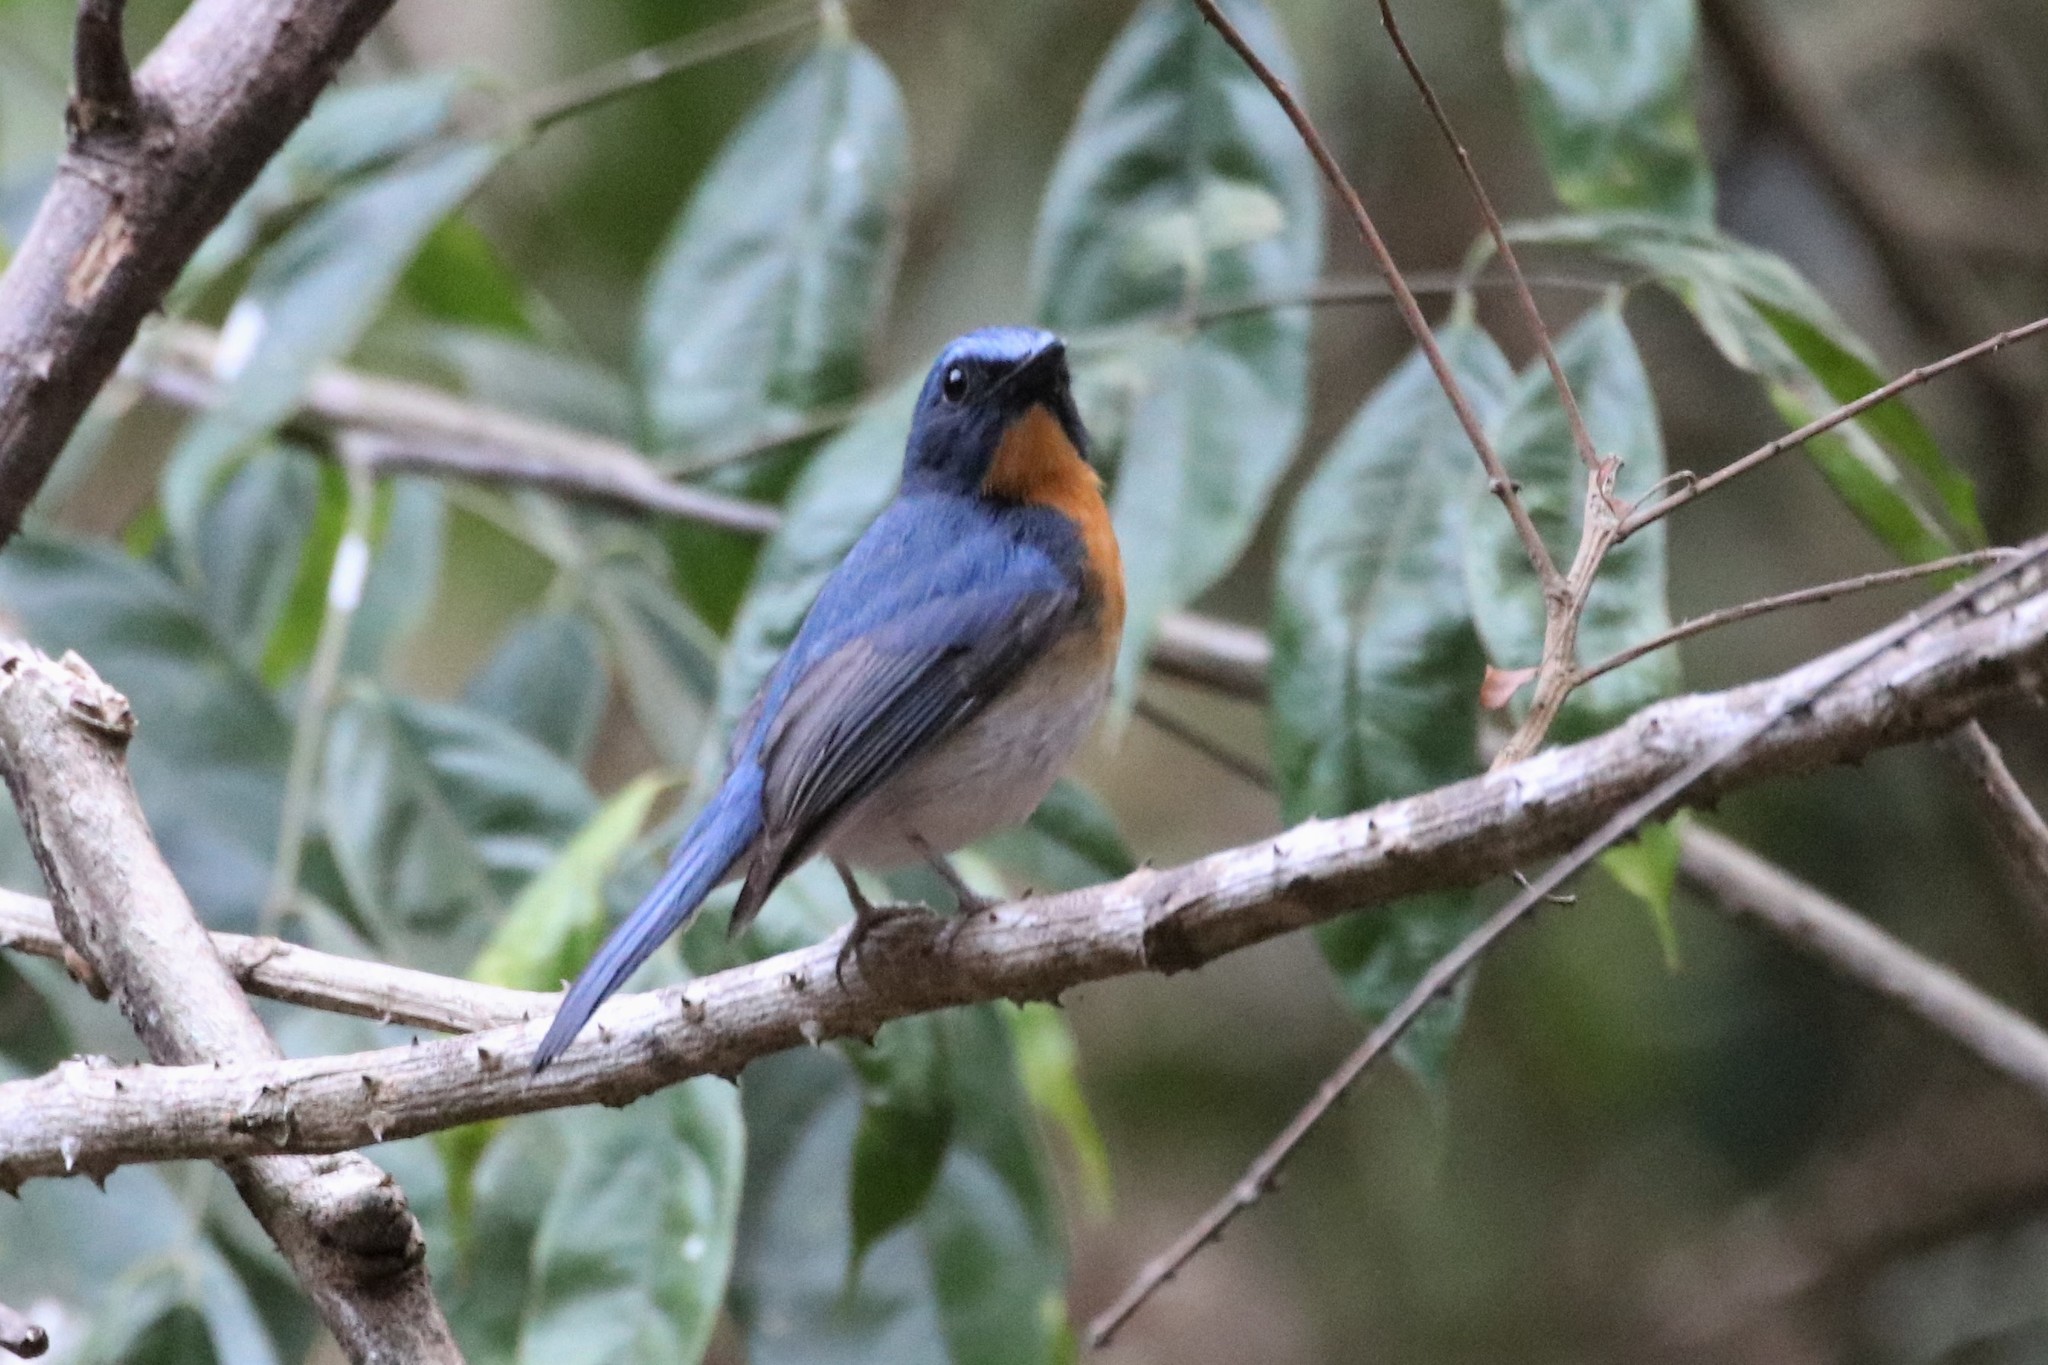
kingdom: Animalia
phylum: Chordata
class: Aves
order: Passeriformes
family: Muscicapidae
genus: Cyornis
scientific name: Cyornis tickelliae
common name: Tickell's blue flycatcher
